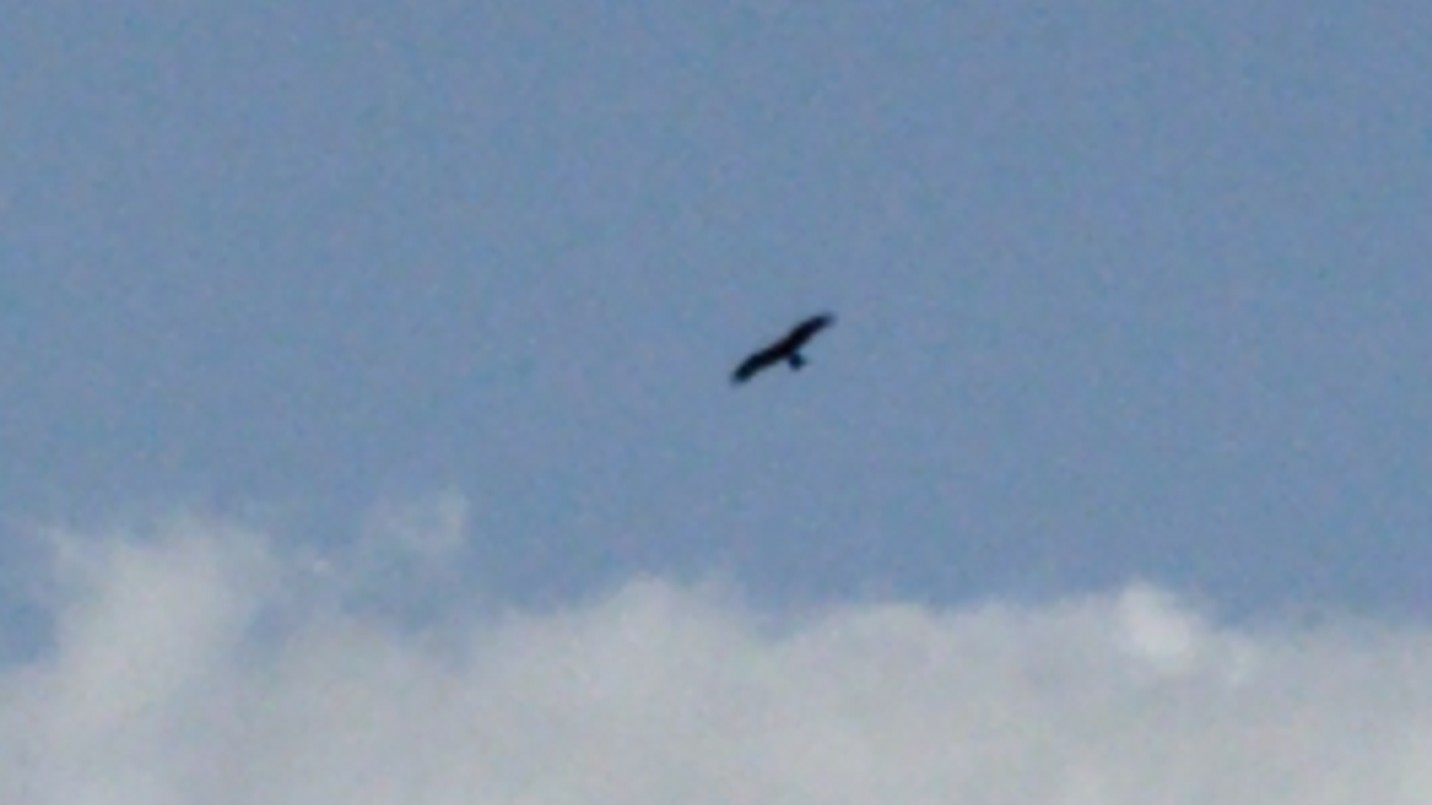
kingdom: Animalia
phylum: Chordata
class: Aves
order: Accipitriformes
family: Accipitridae
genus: Milvus
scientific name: Milvus migrans
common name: Black kite
